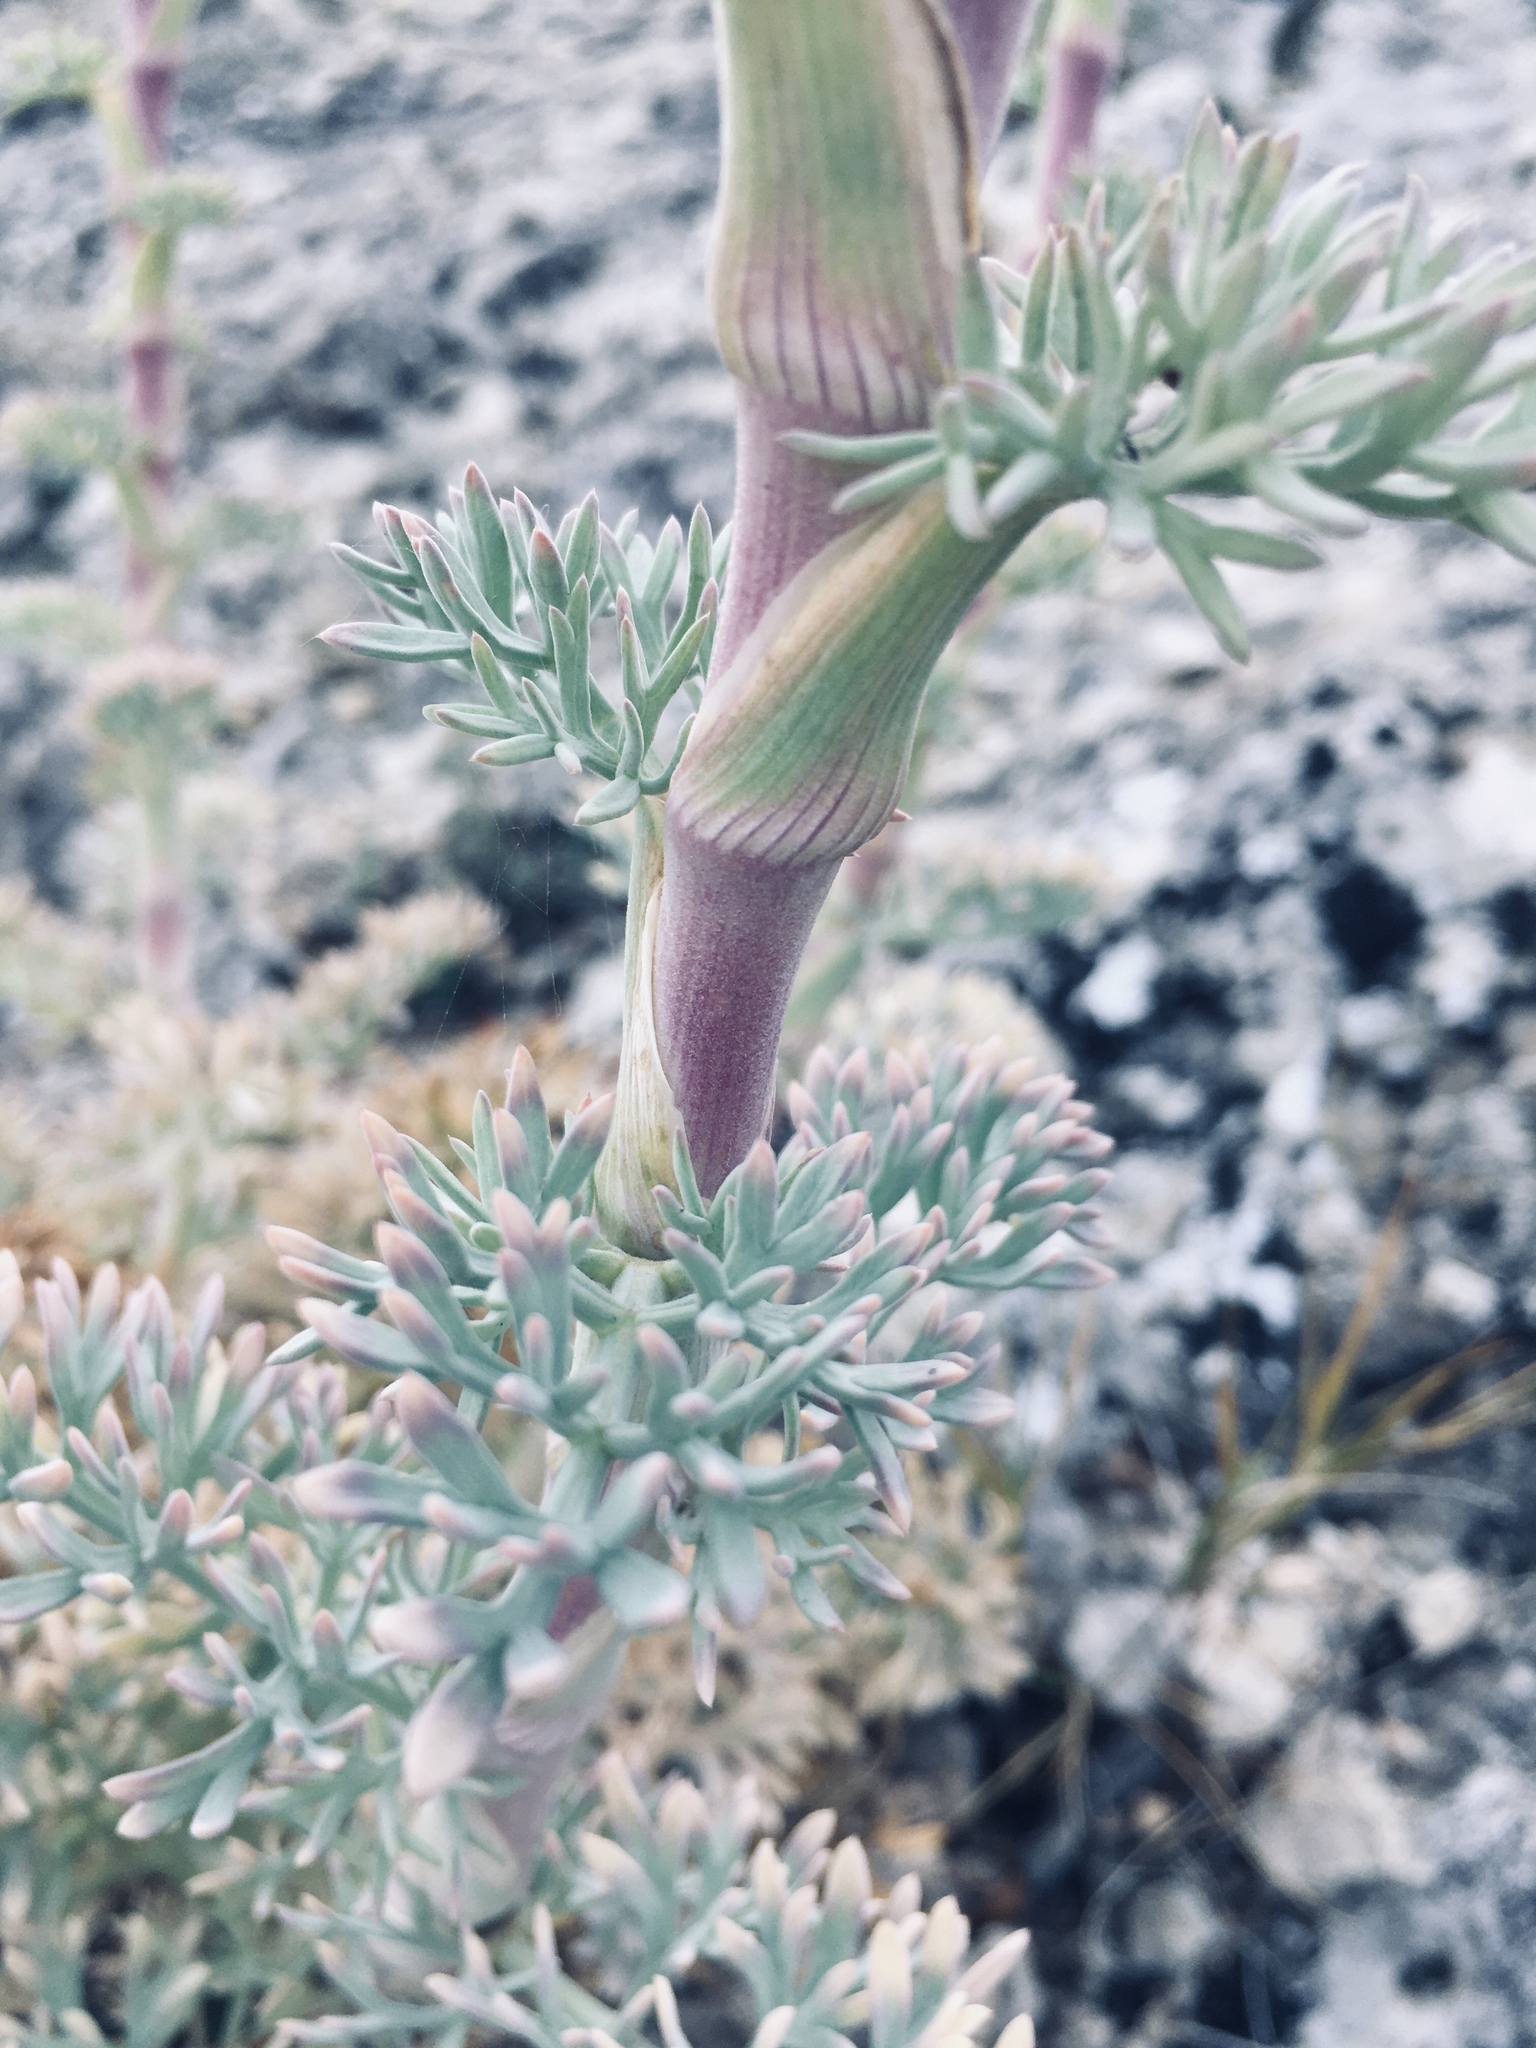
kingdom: Plantae
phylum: Tracheophyta
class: Magnoliopsida
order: Apiales
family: Apiaceae
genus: Seseli
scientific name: Seseli gummiferum
